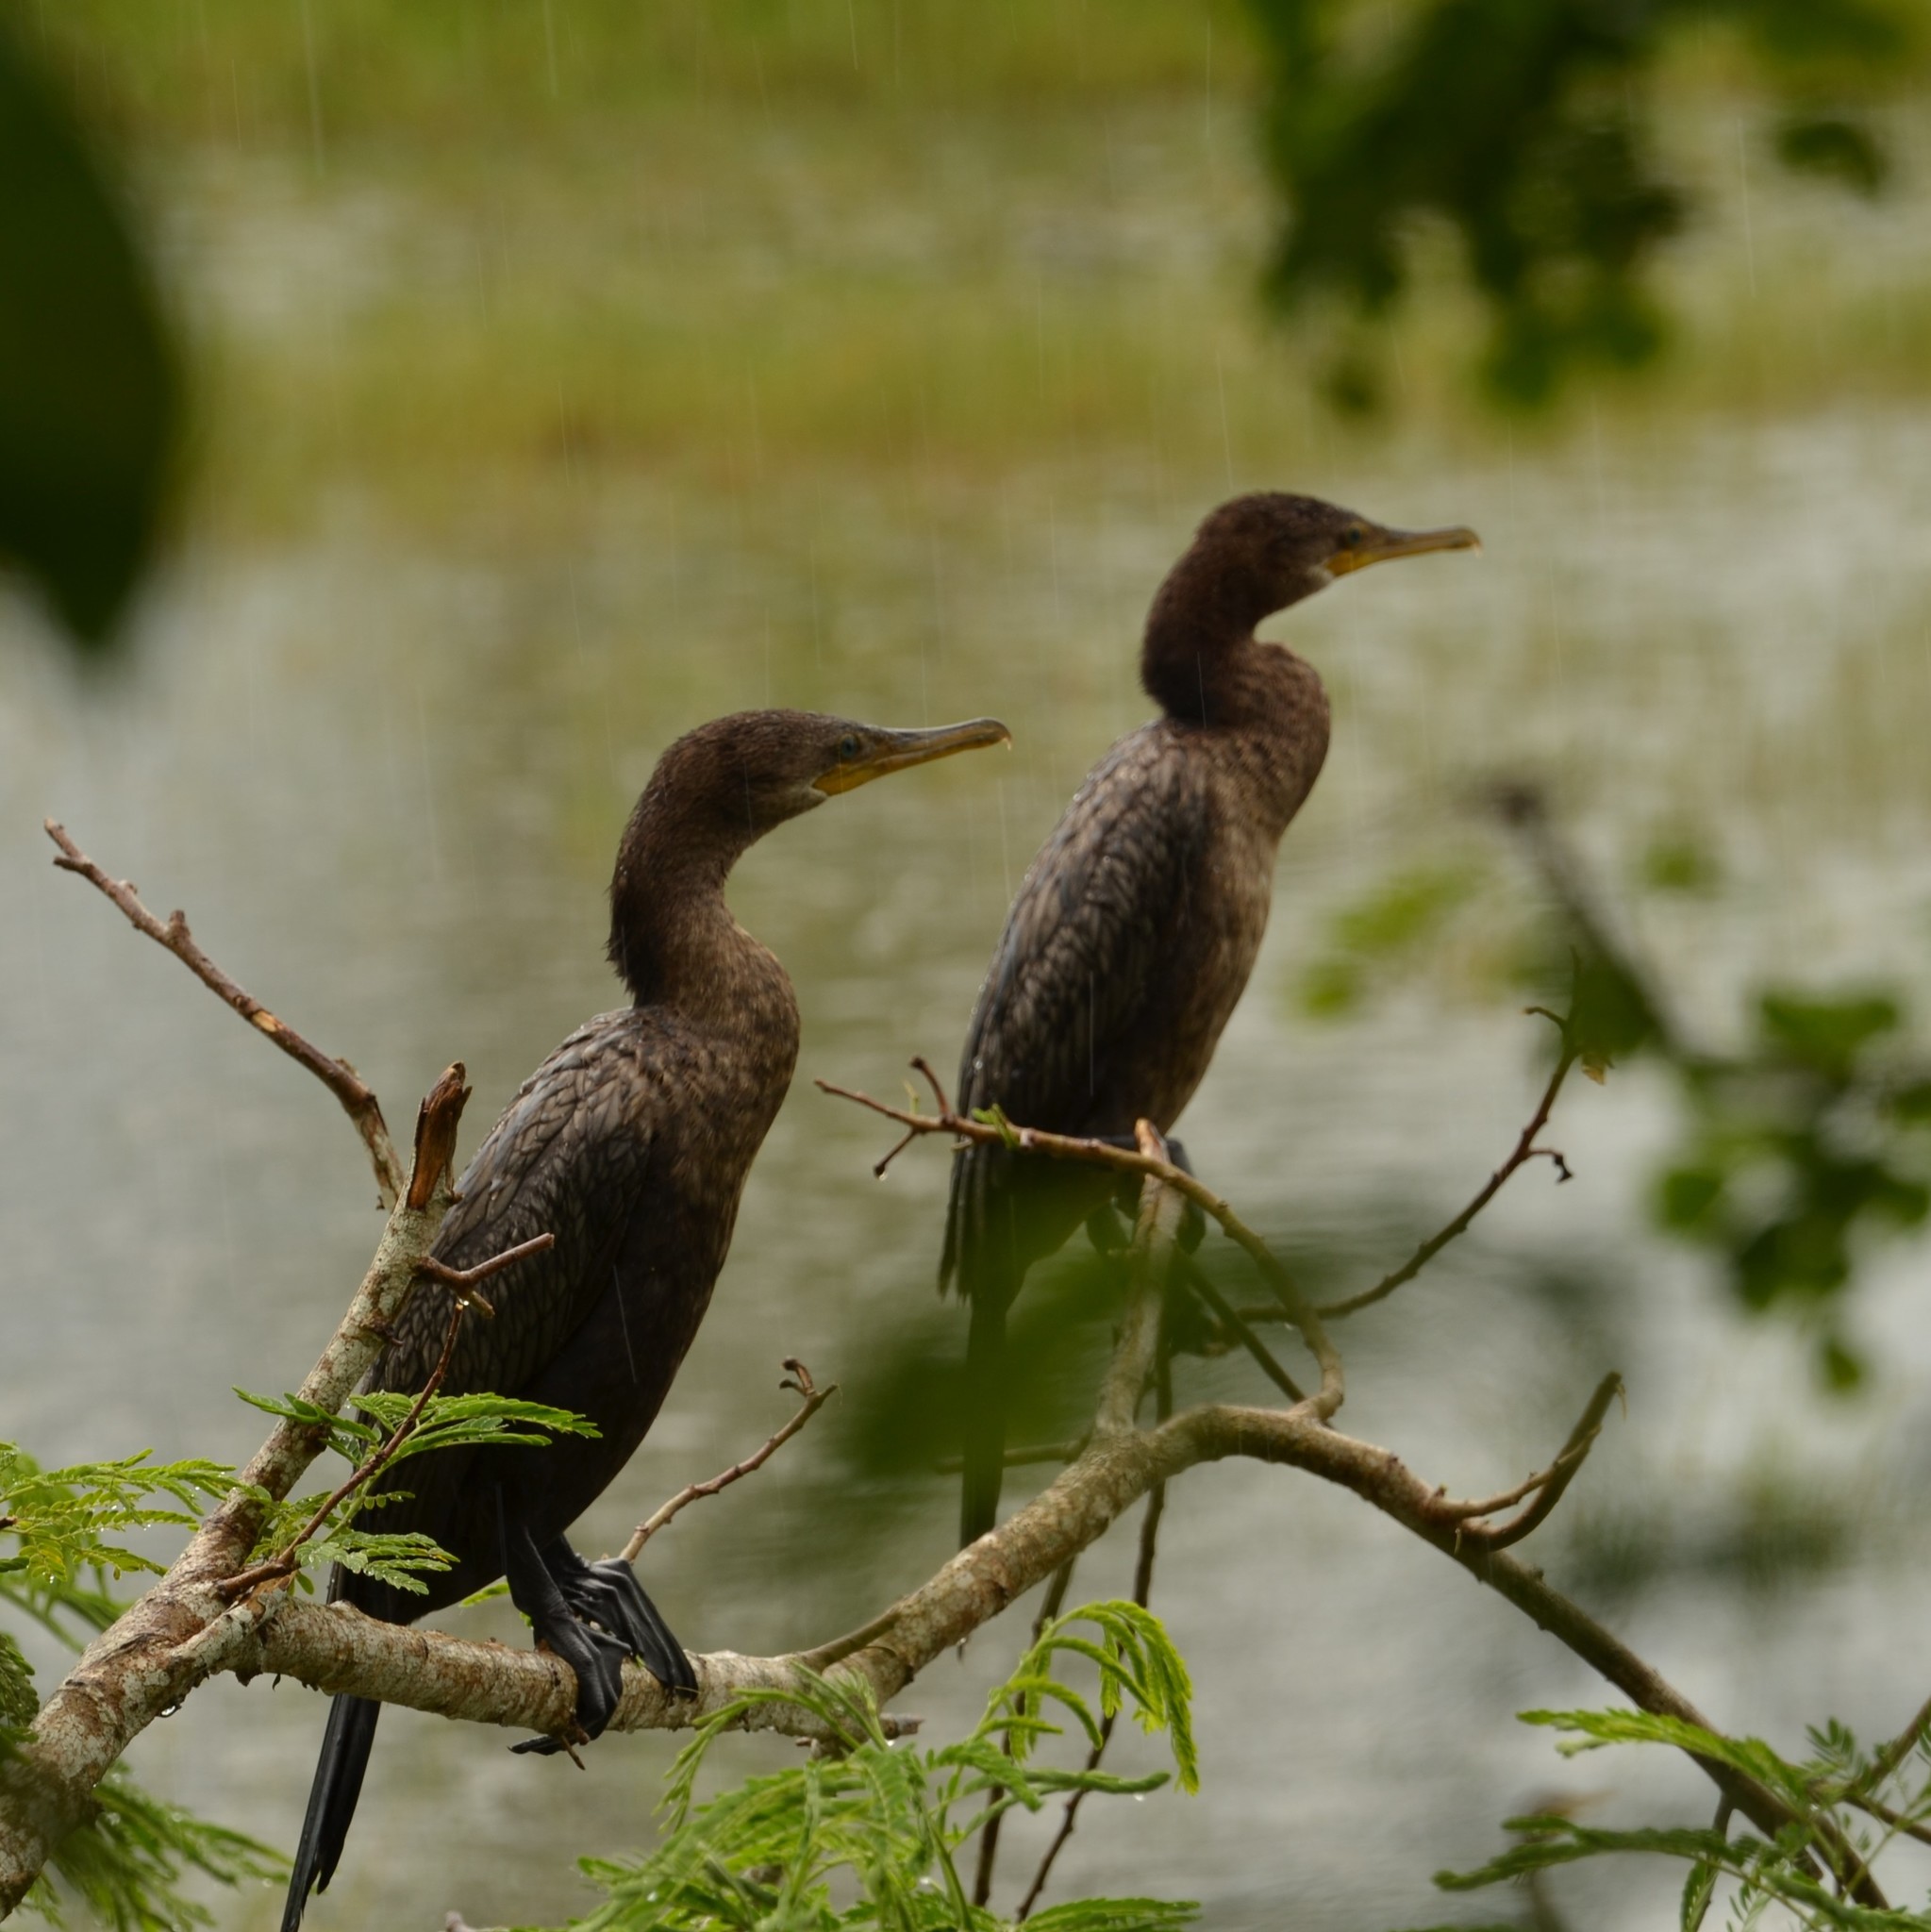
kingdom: Animalia
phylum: Chordata
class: Aves
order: Suliformes
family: Phalacrocoracidae
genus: Phalacrocorax
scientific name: Phalacrocorax brasilianus
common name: Neotropic cormorant
